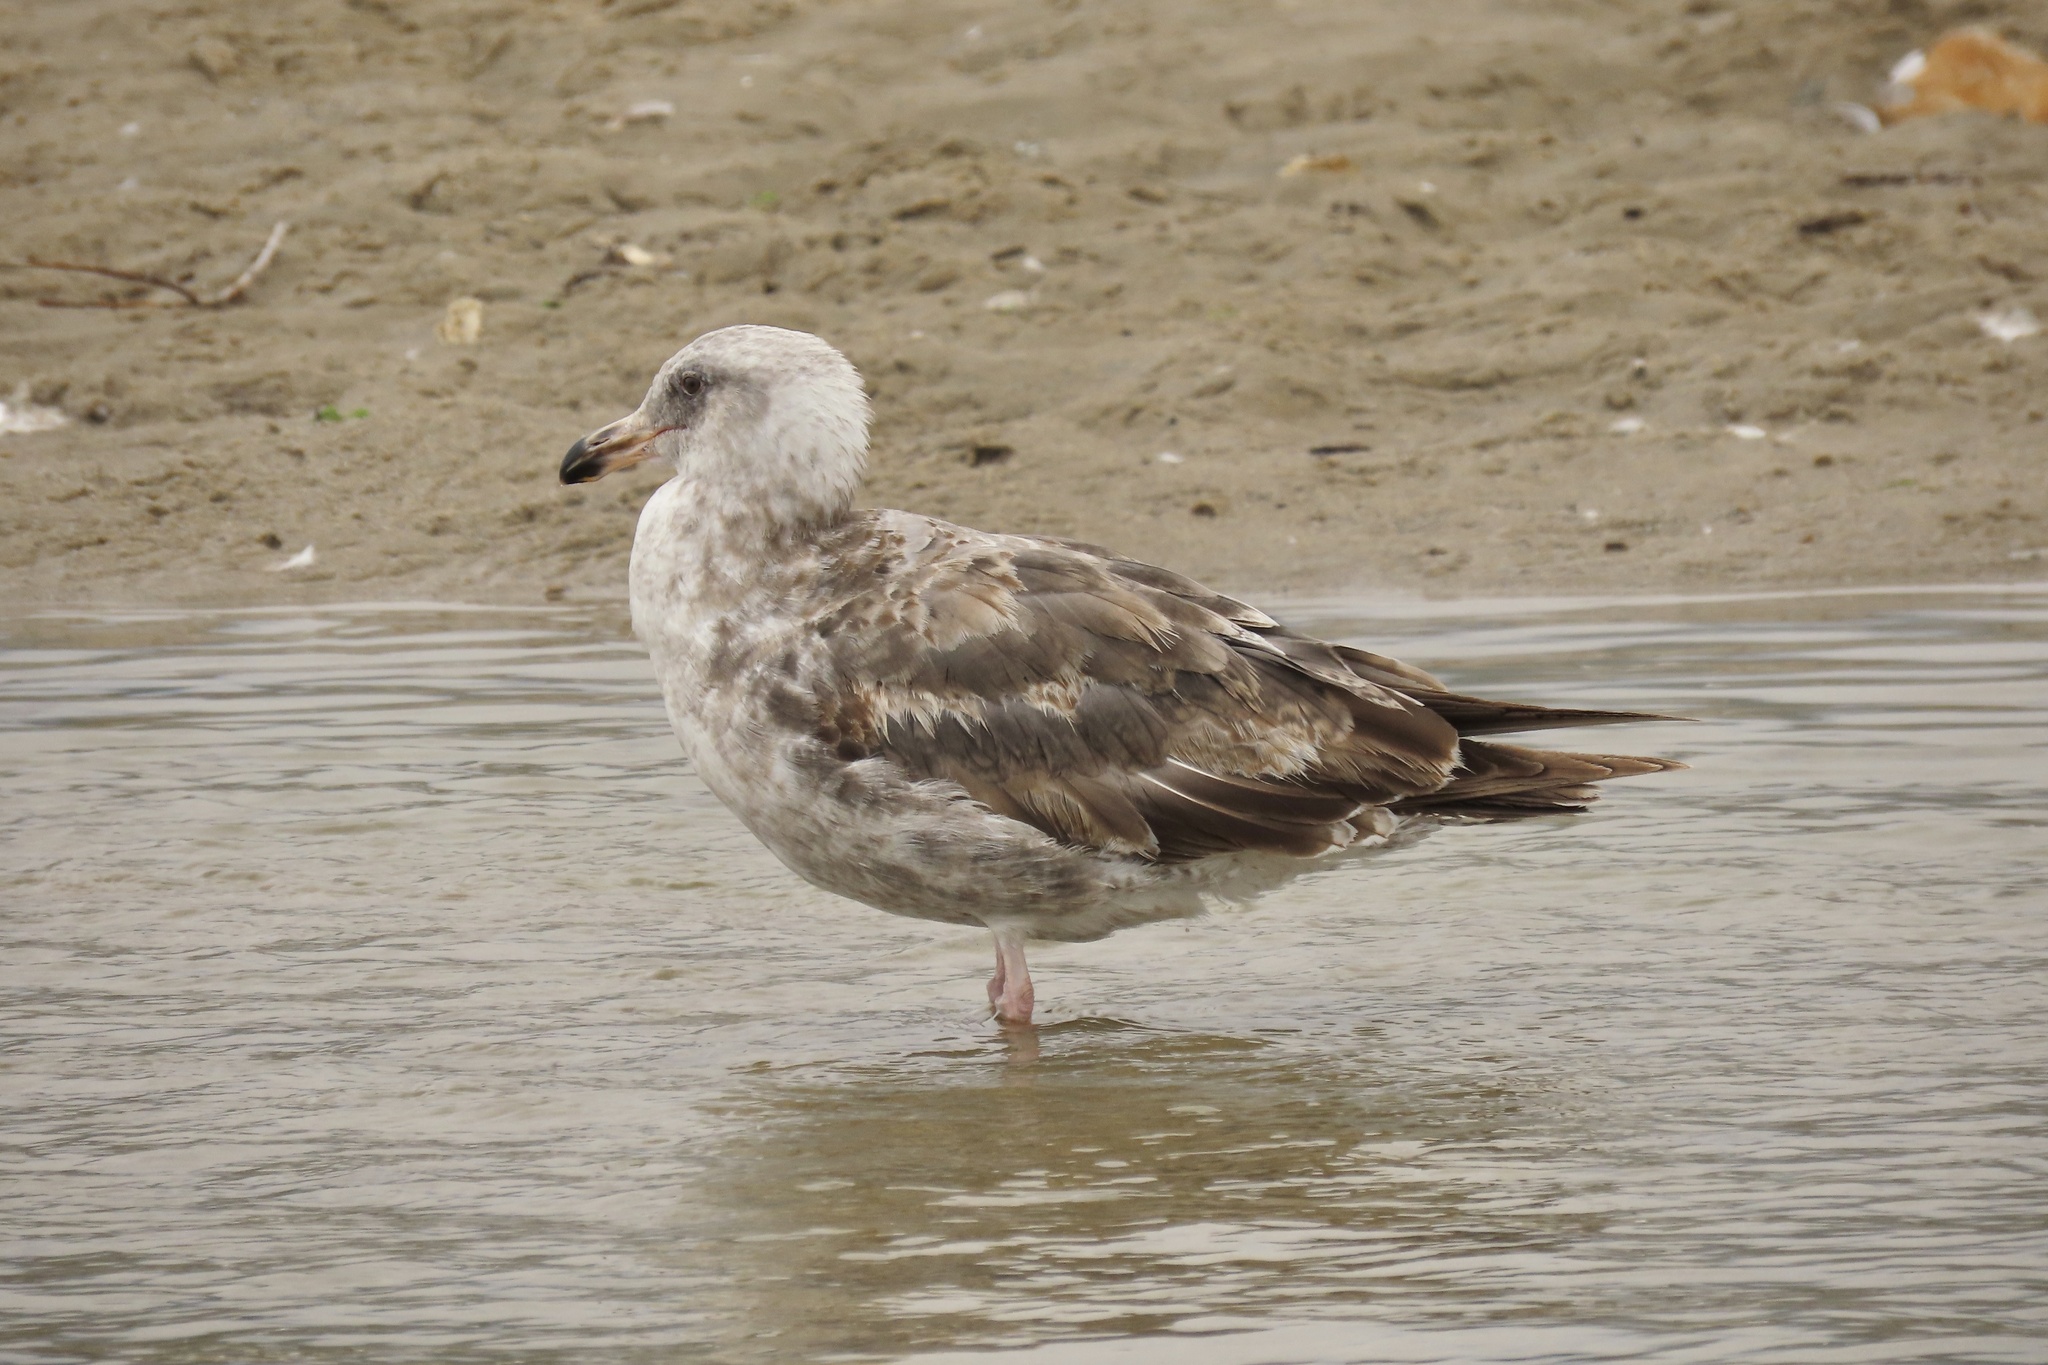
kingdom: Animalia
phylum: Chordata
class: Aves
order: Charadriiformes
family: Laridae
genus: Larus
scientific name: Larus occidentalis
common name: Western gull
